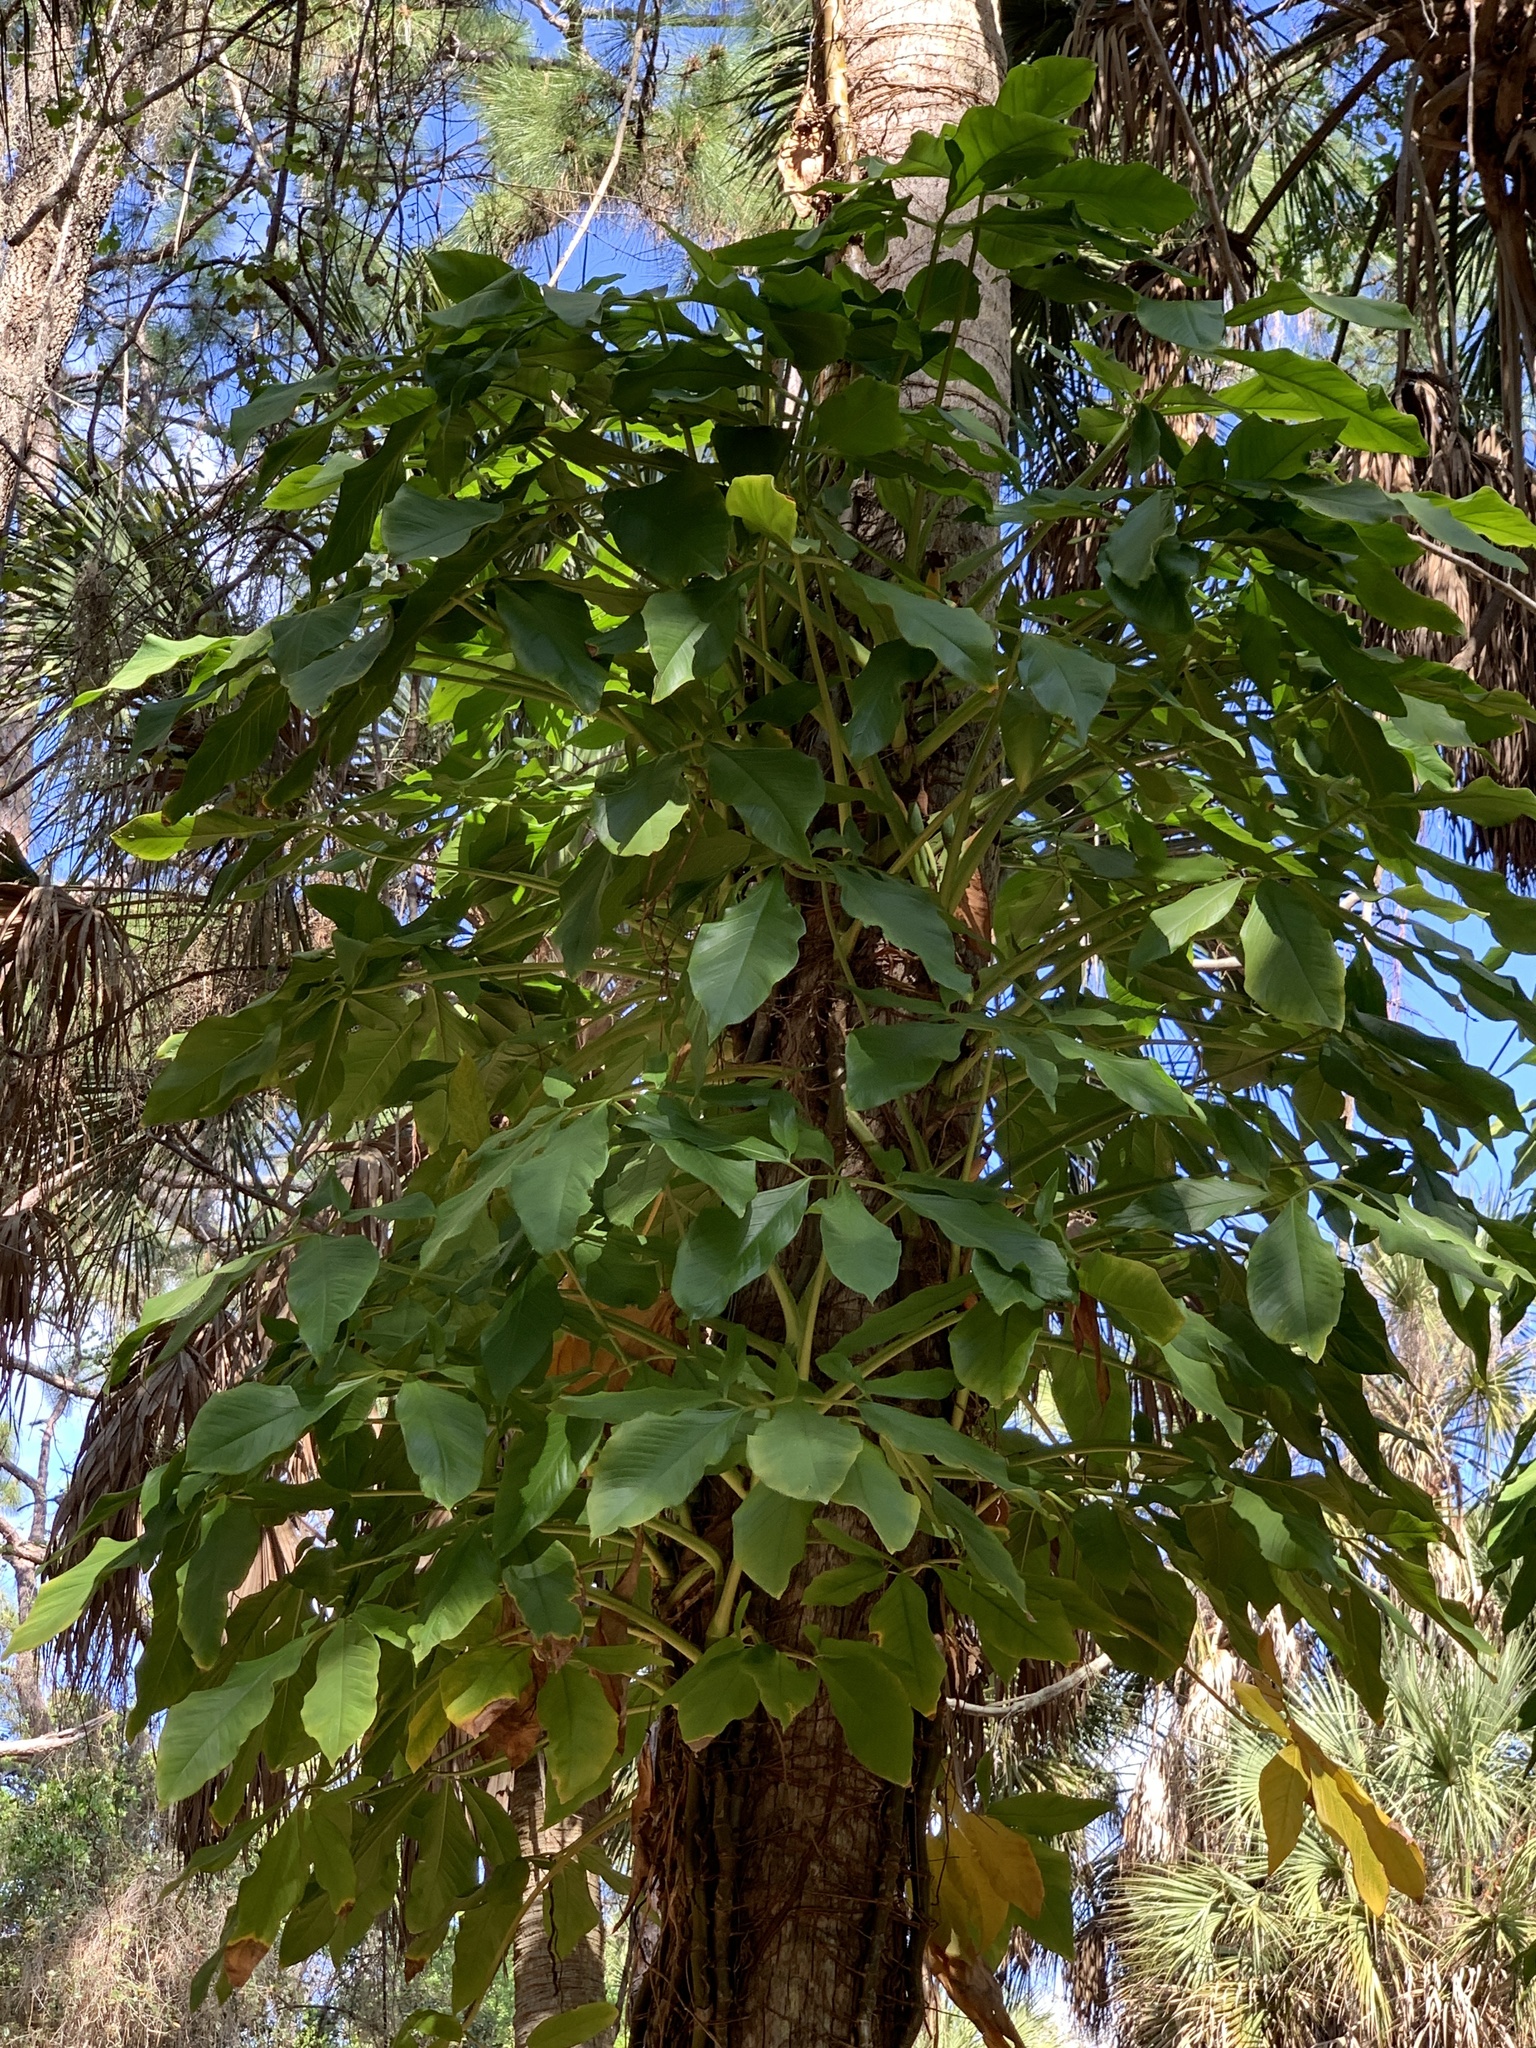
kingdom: Plantae
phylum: Tracheophyta
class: Liliopsida
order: Alismatales
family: Araceae
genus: Syngonium
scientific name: Syngonium podophyllum
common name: American evergreen
